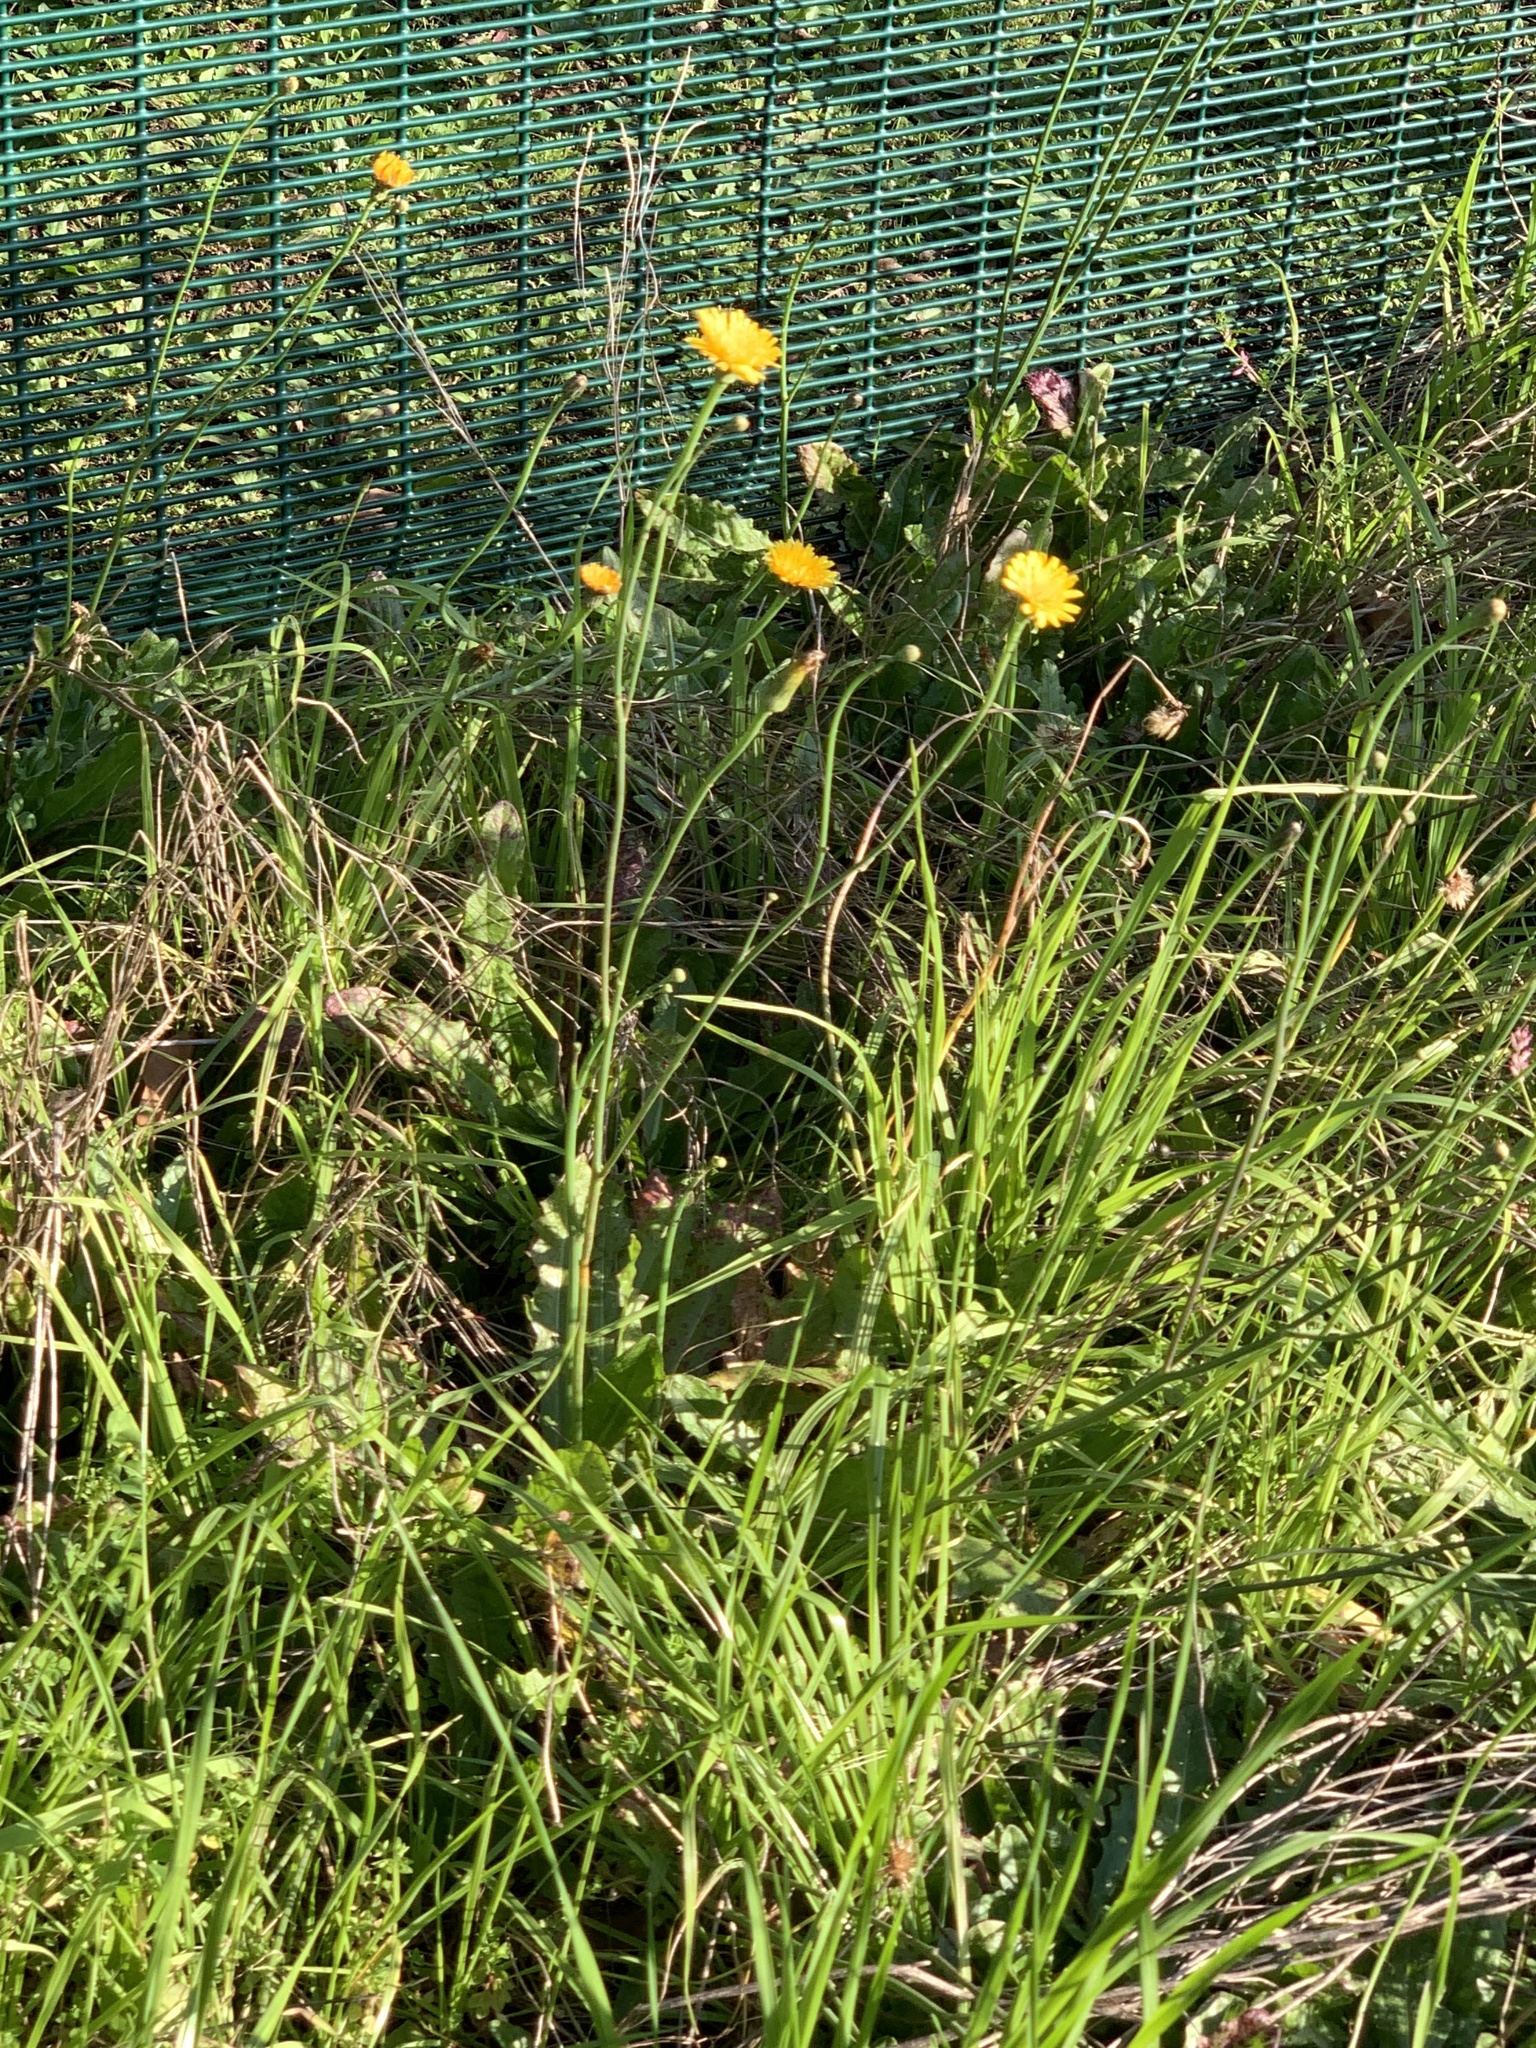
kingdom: Plantae
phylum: Tracheophyta
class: Magnoliopsida
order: Asterales
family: Asteraceae
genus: Hypochaeris
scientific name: Hypochaeris radicata
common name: Flatweed
